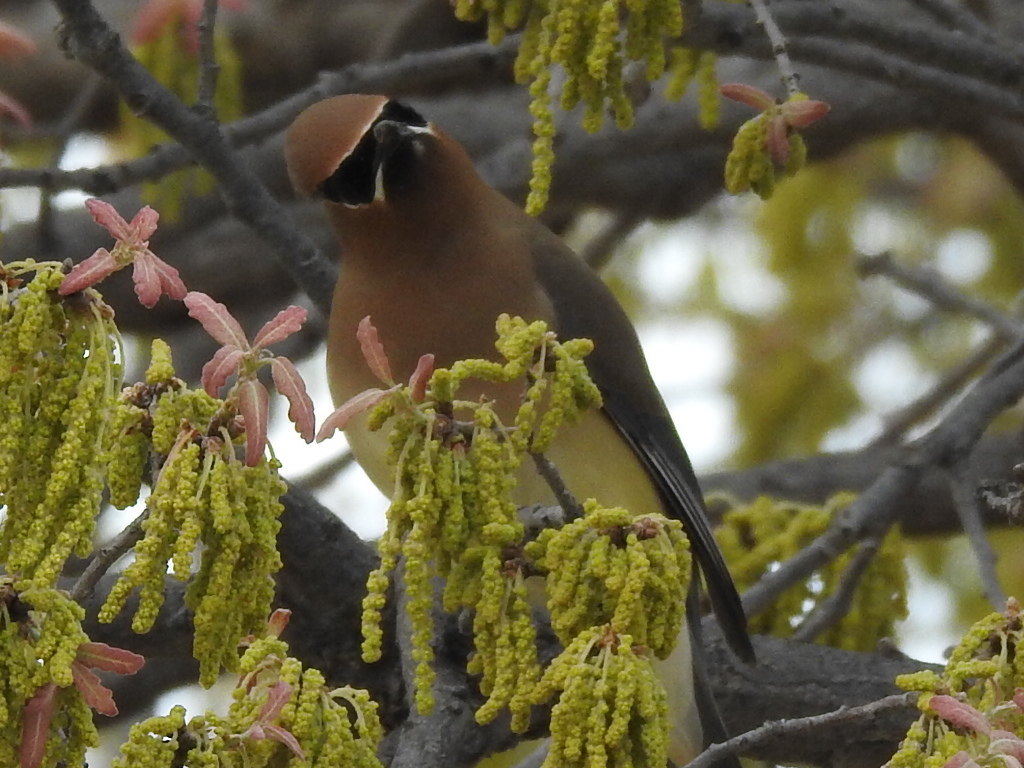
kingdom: Animalia
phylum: Chordata
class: Aves
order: Passeriformes
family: Bombycillidae
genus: Bombycilla
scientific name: Bombycilla cedrorum
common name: Cedar waxwing
